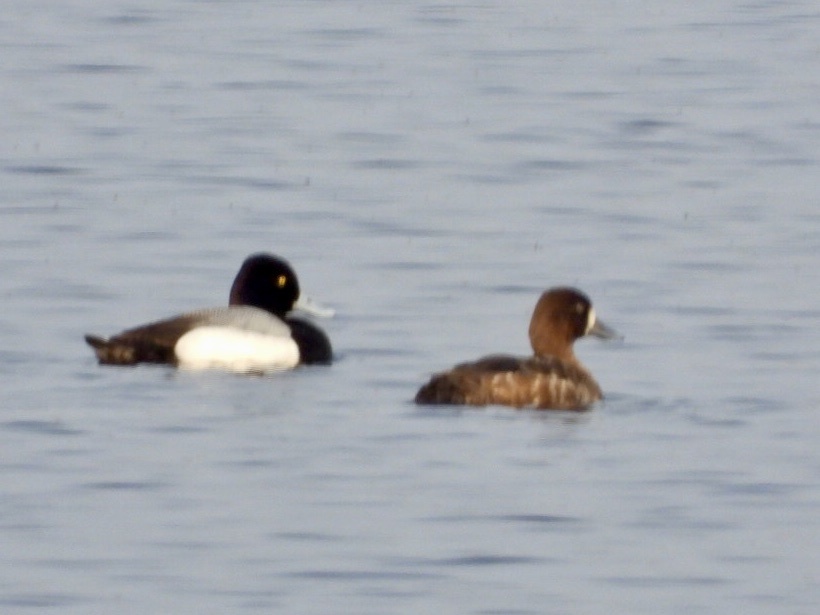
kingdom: Animalia
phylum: Chordata
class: Aves
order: Anseriformes
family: Anatidae
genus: Aythya
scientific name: Aythya affinis
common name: Lesser scaup
